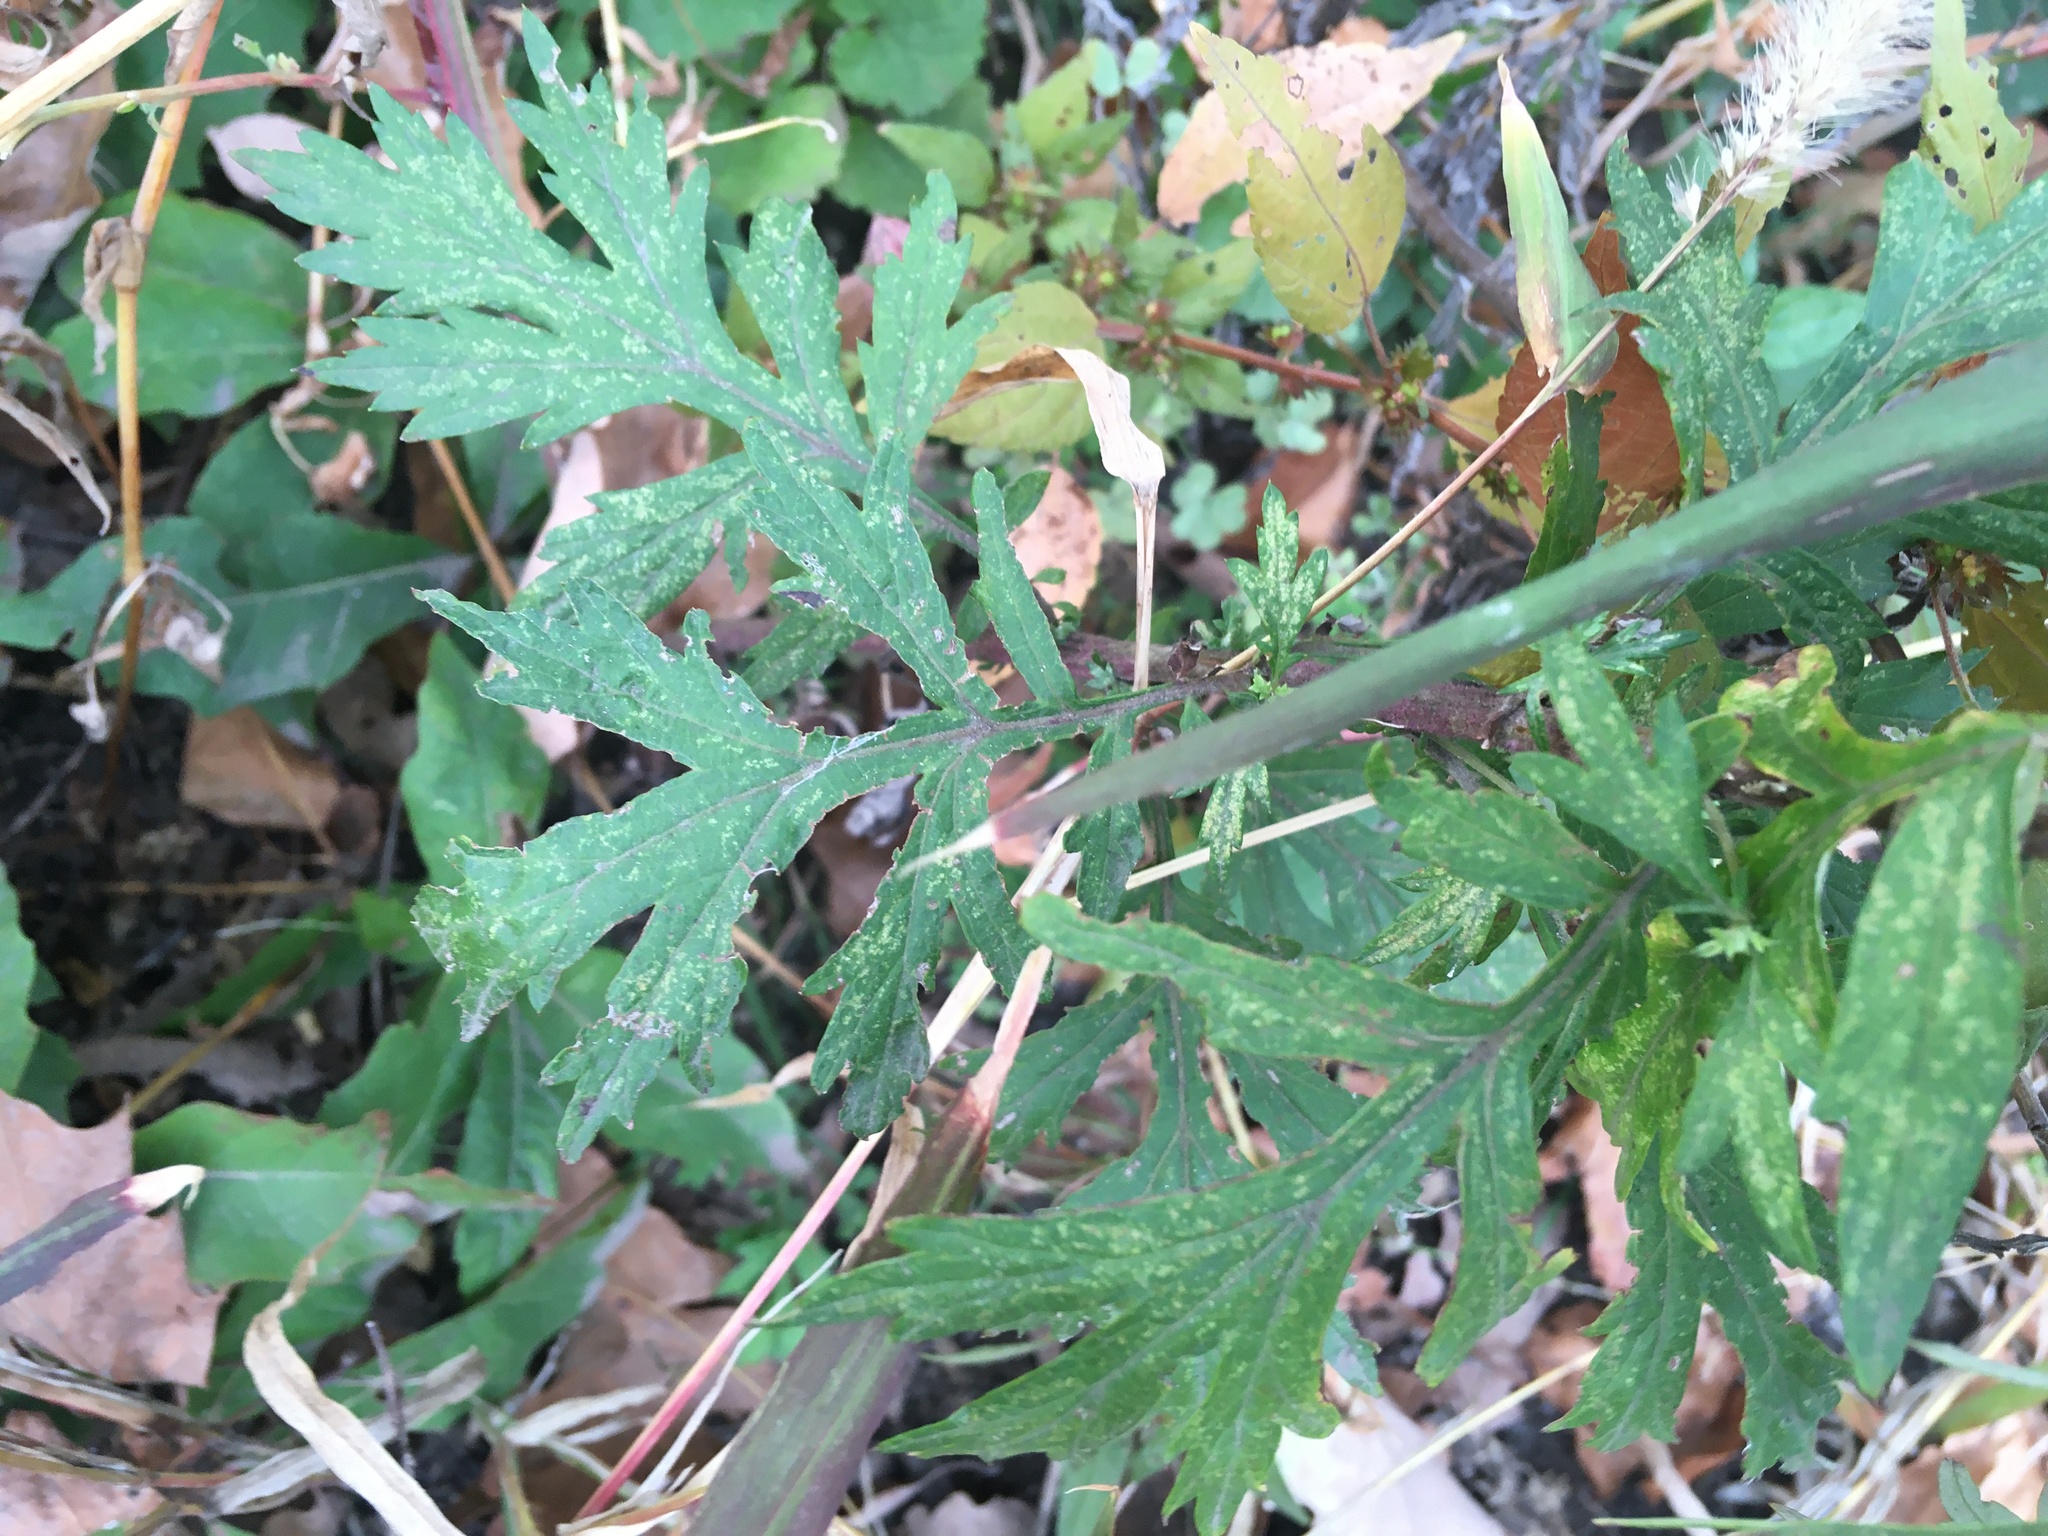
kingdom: Plantae
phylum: Tracheophyta
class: Magnoliopsida
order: Asterales
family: Asteraceae
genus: Artemisia
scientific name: Artemisia vulgaris
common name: Mugwort
